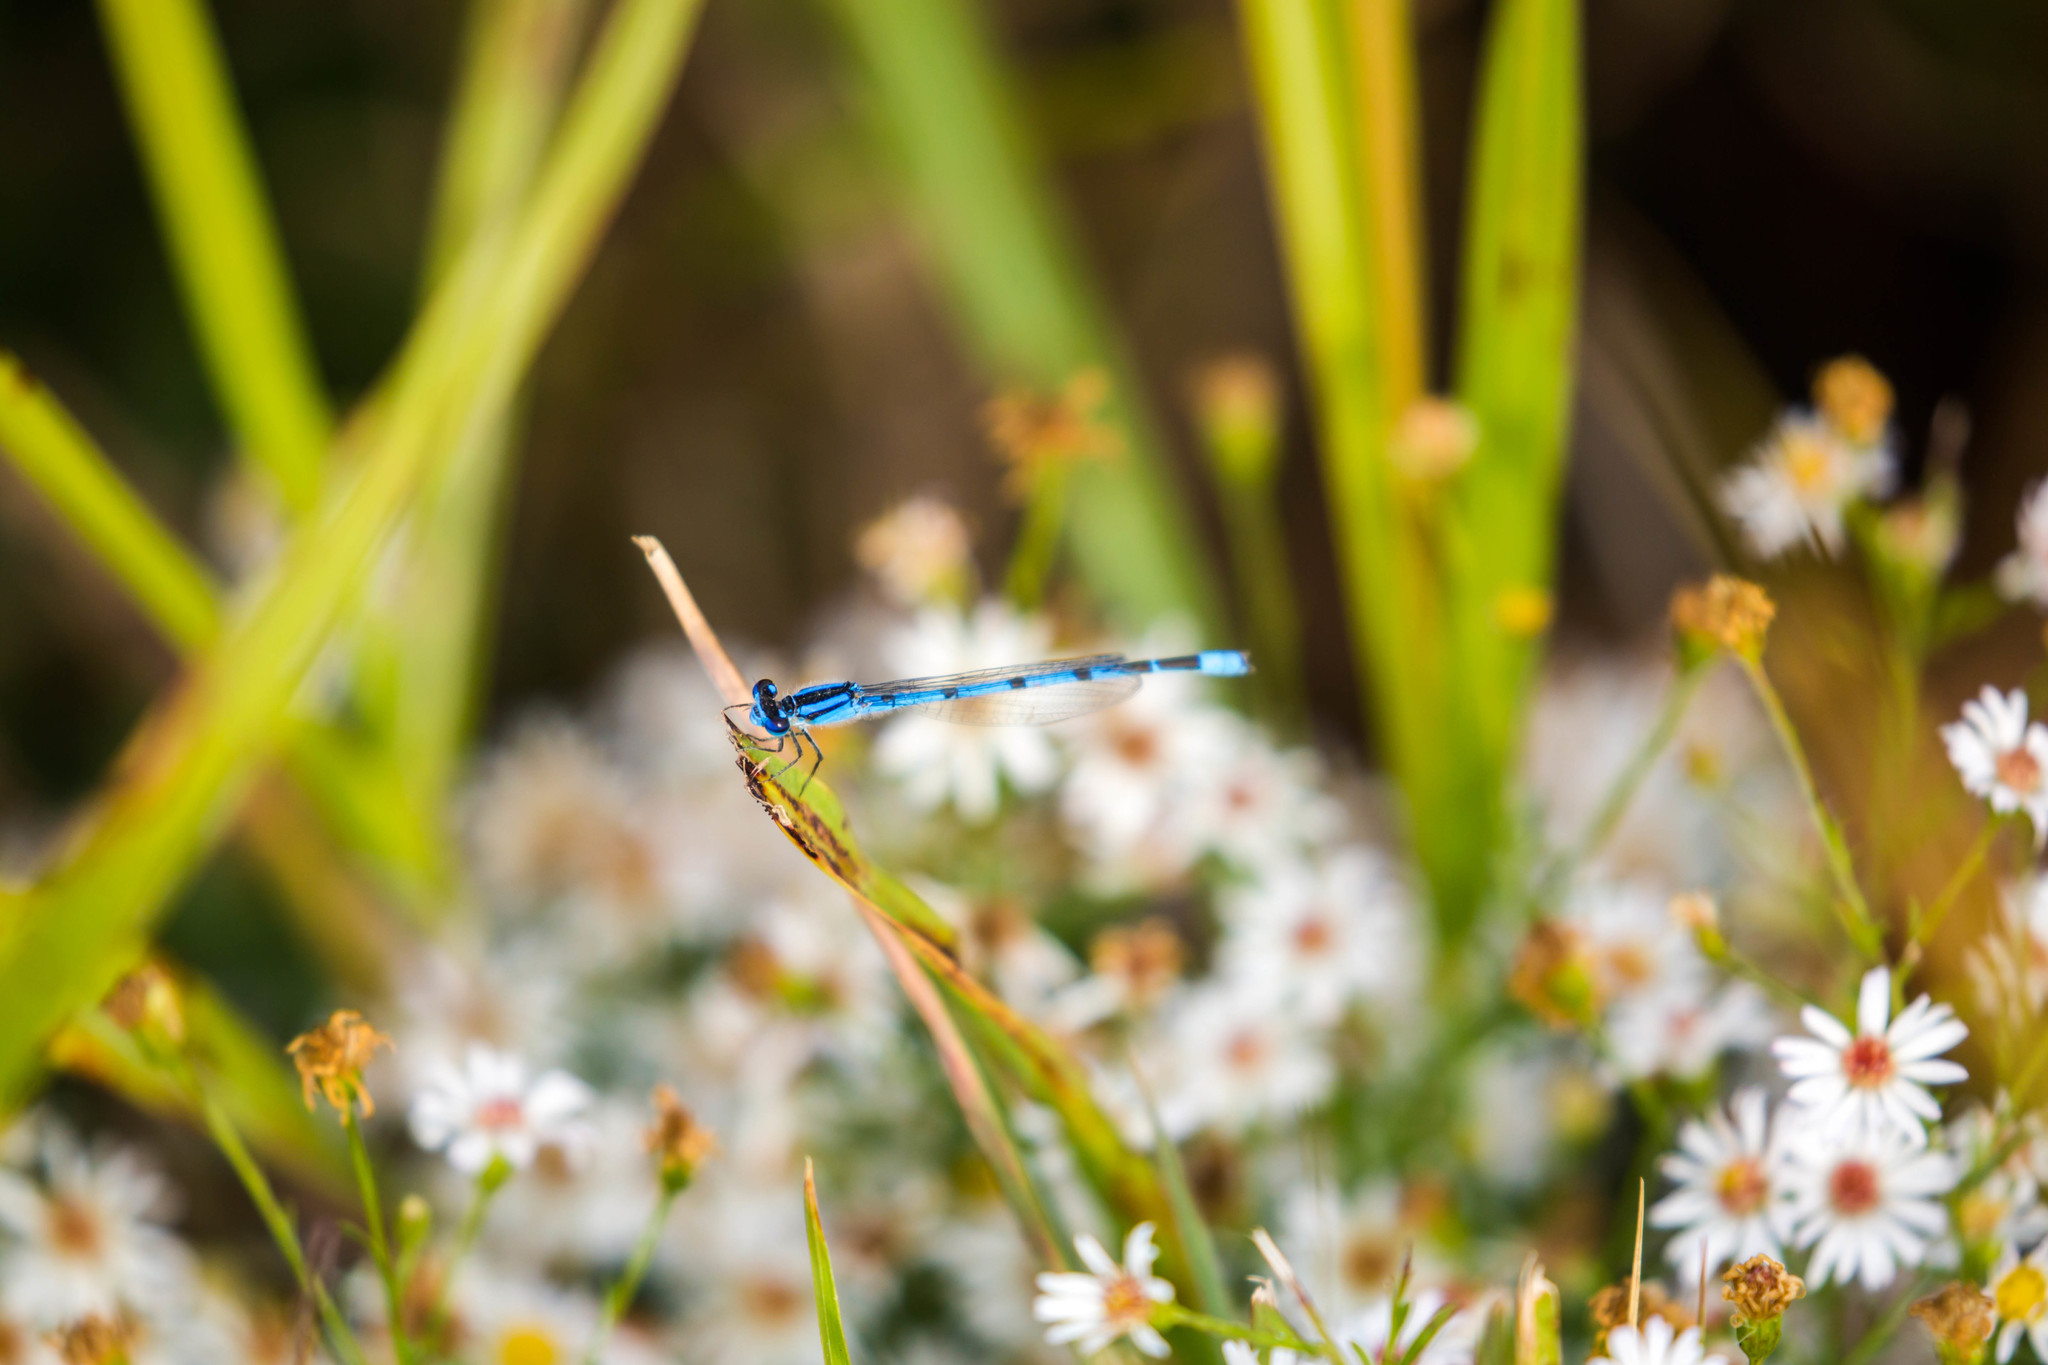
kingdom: Animalia
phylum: Arthropoda
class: Insecta
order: Odonata
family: Coenagrionidae
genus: Enallagma
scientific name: Enallagma civile
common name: Damselfly
